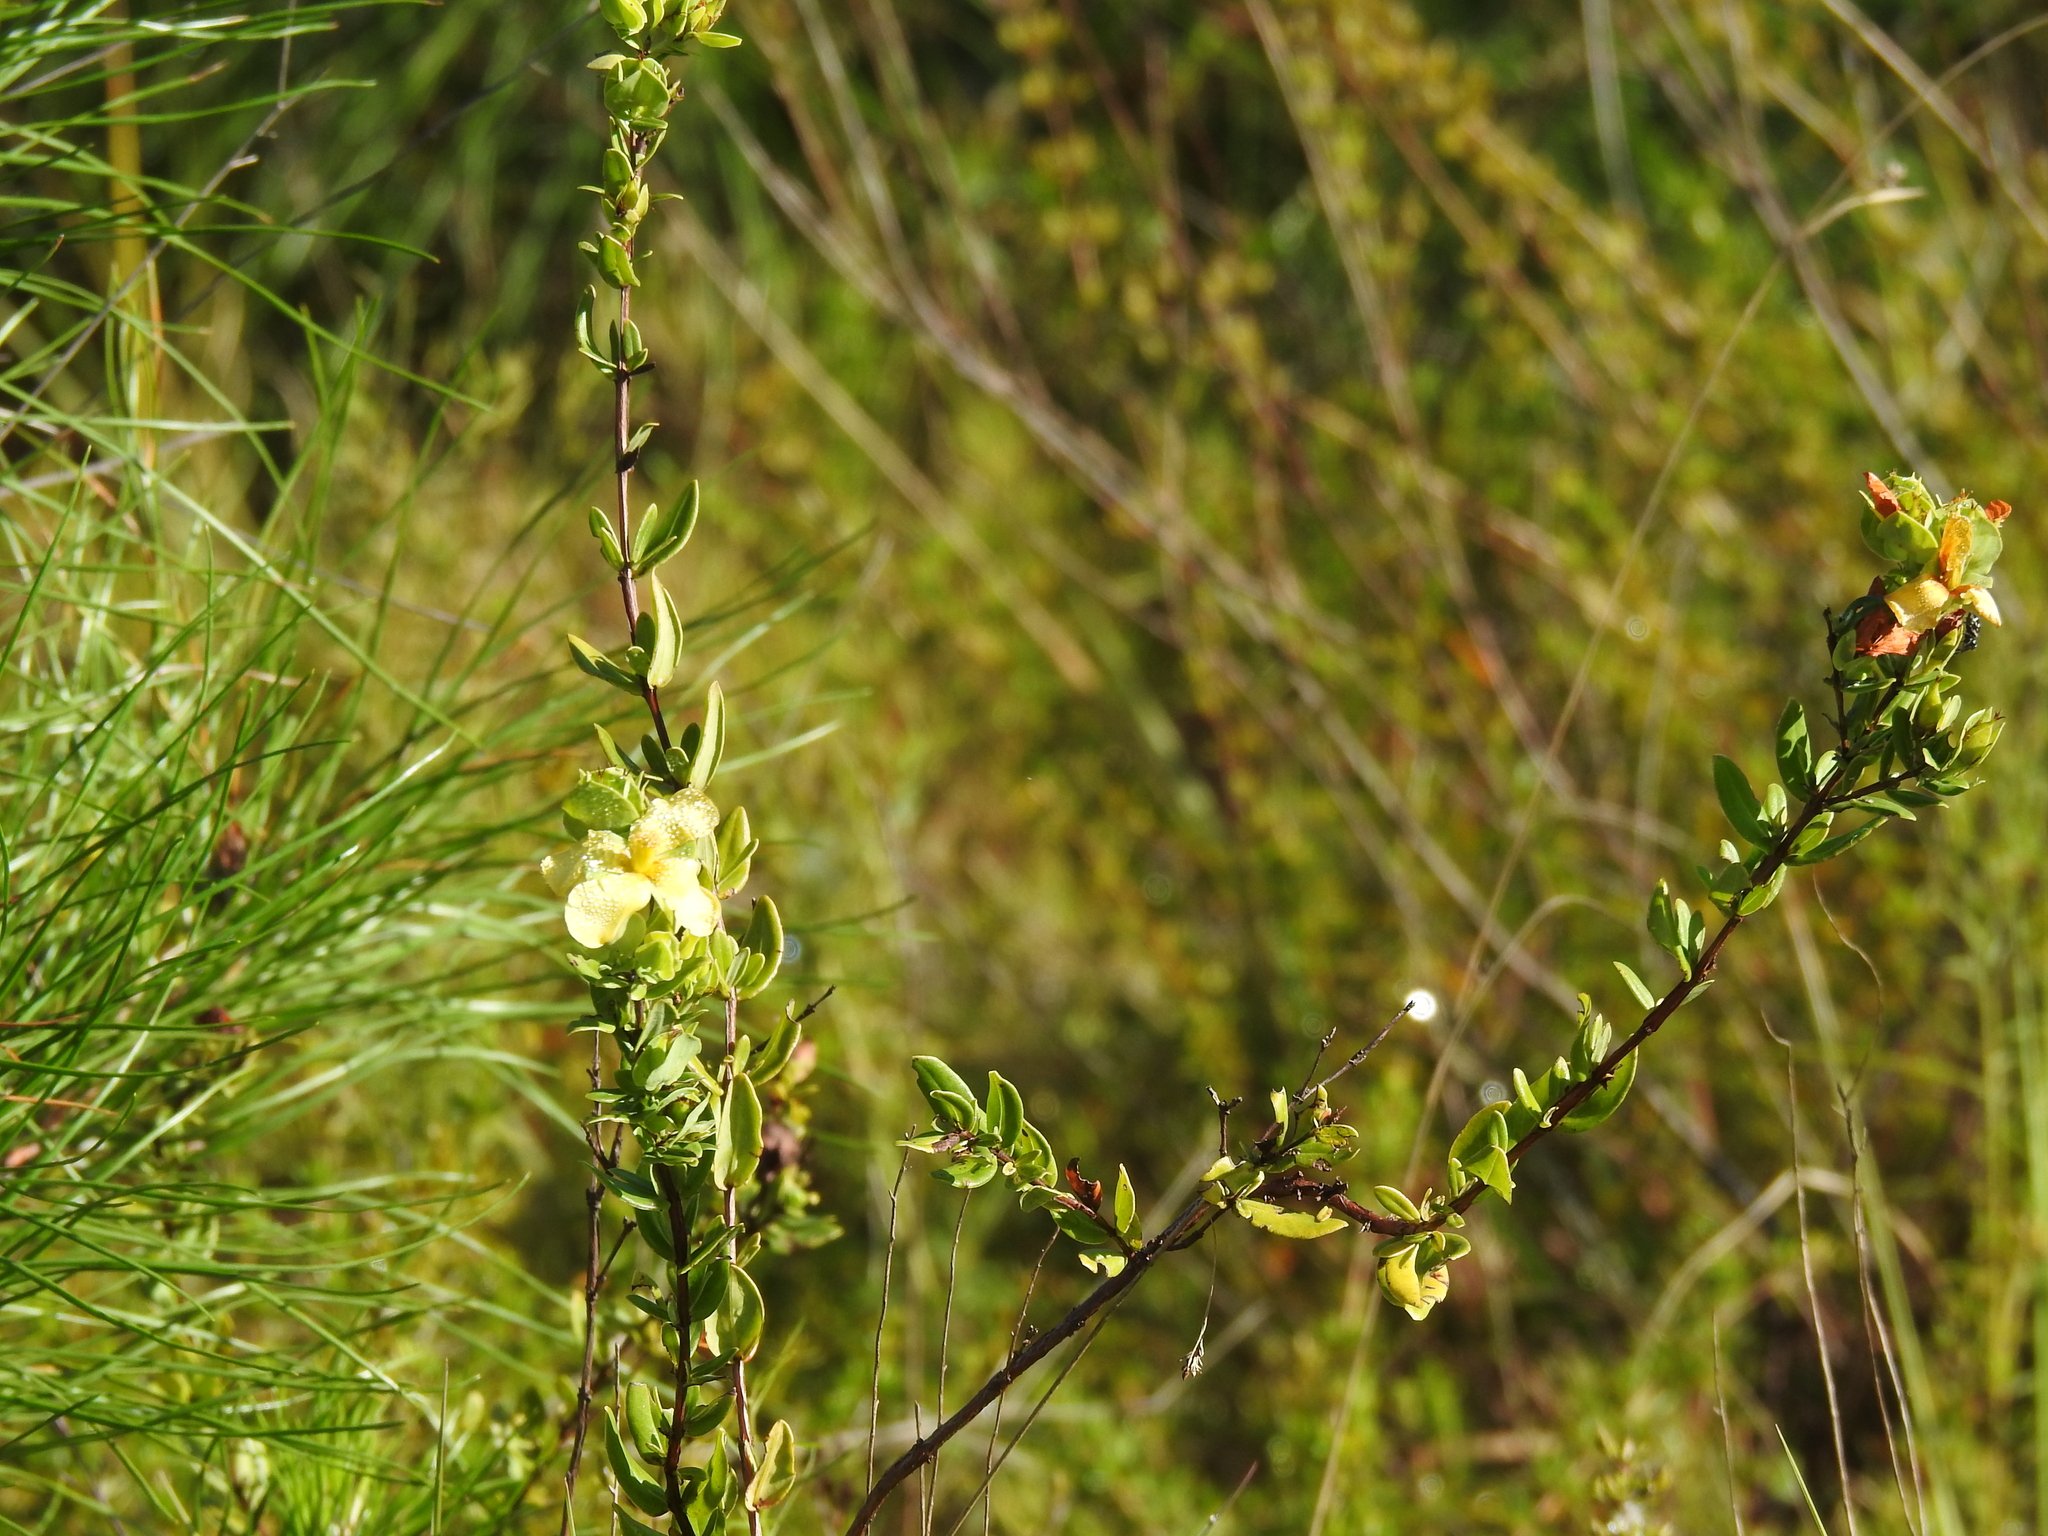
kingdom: Plantae
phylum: Tracheophyta
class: Magnoliopsida
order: Malpighiales
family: Hypericaceae
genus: Hypericum
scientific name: Hypericum crux-andreae
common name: St.-peter's-wort
